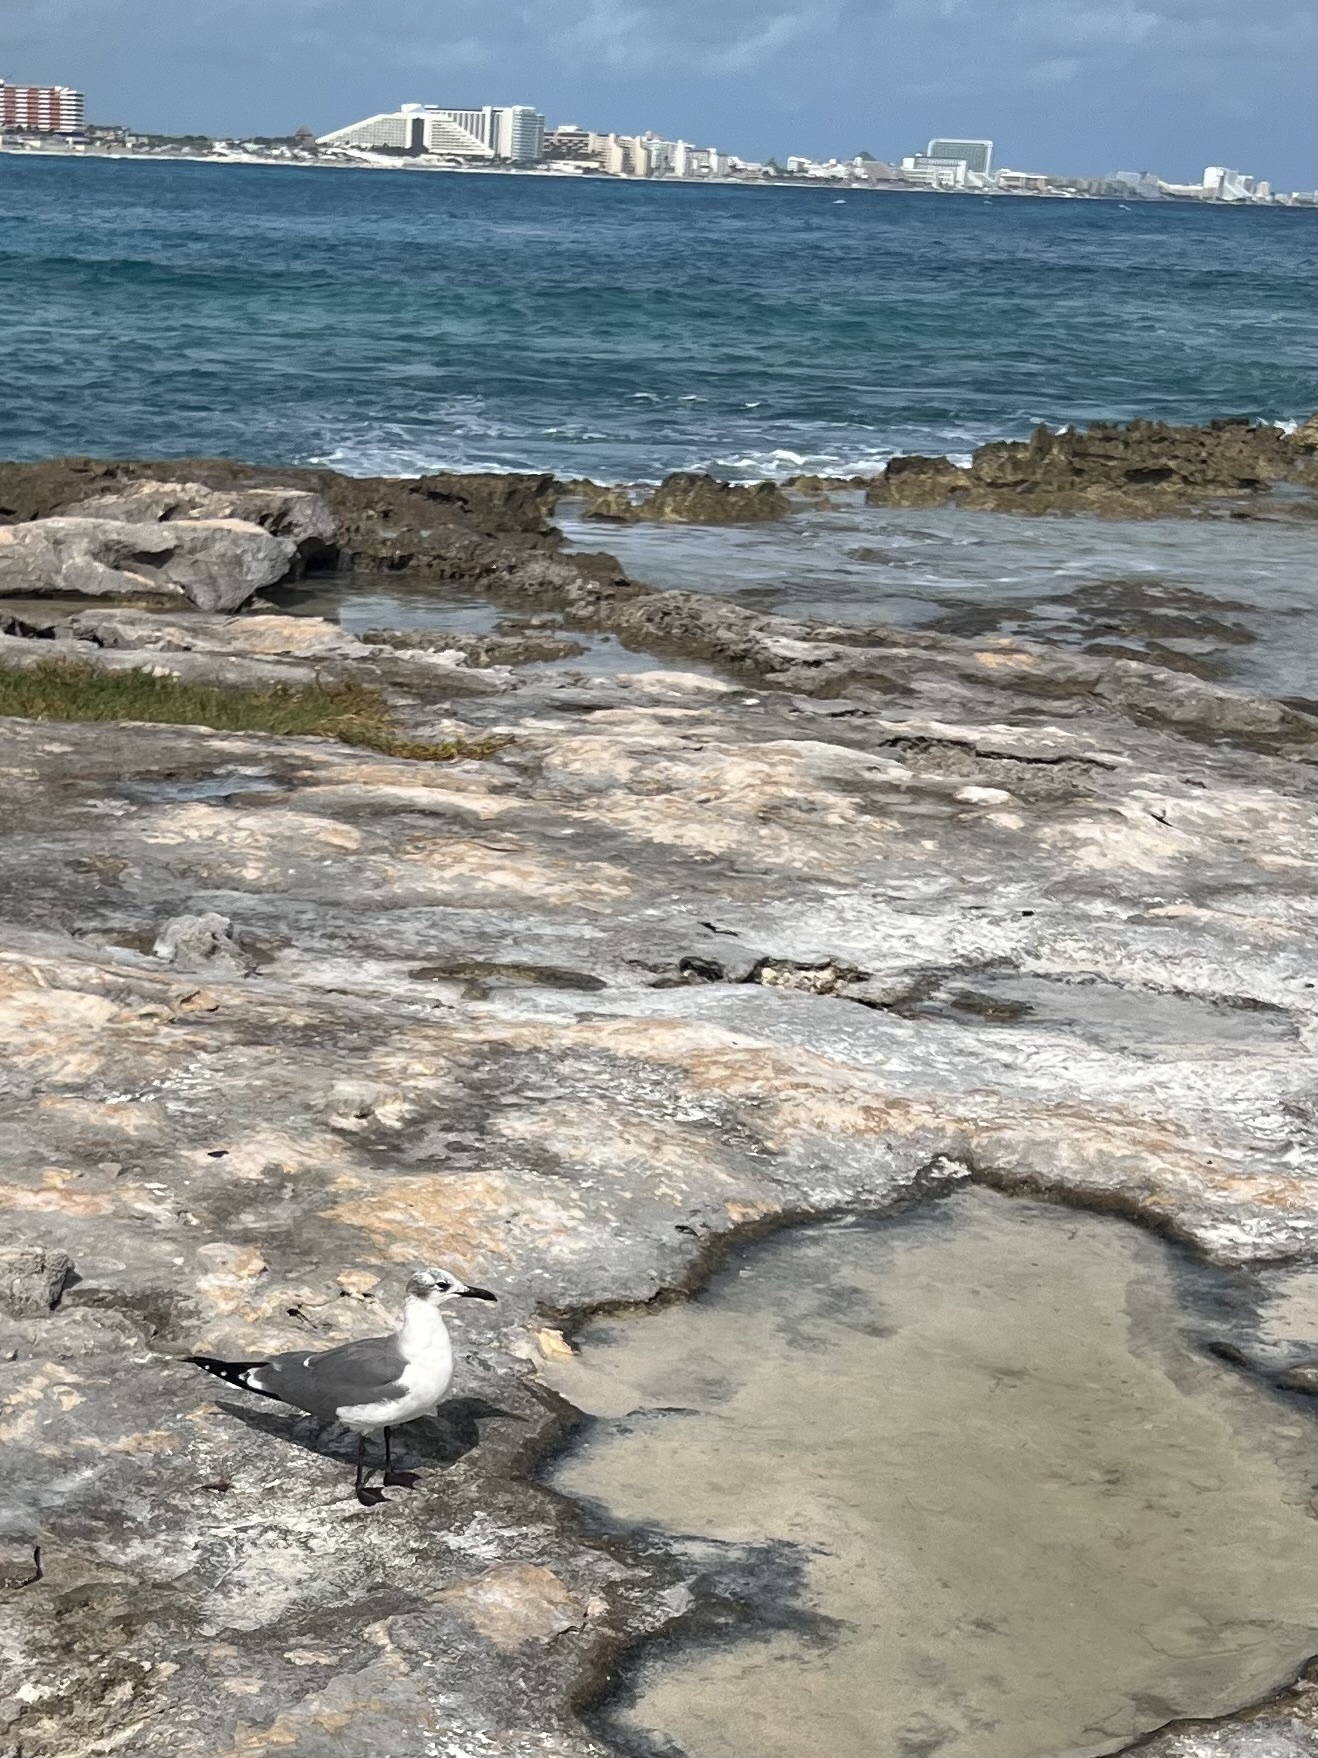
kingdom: Animalia
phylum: Chordata
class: Aves
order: Charadriiformes
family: Laridae
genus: Leucophaeus
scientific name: Leucophaeus atricilla
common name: Laughing gull
